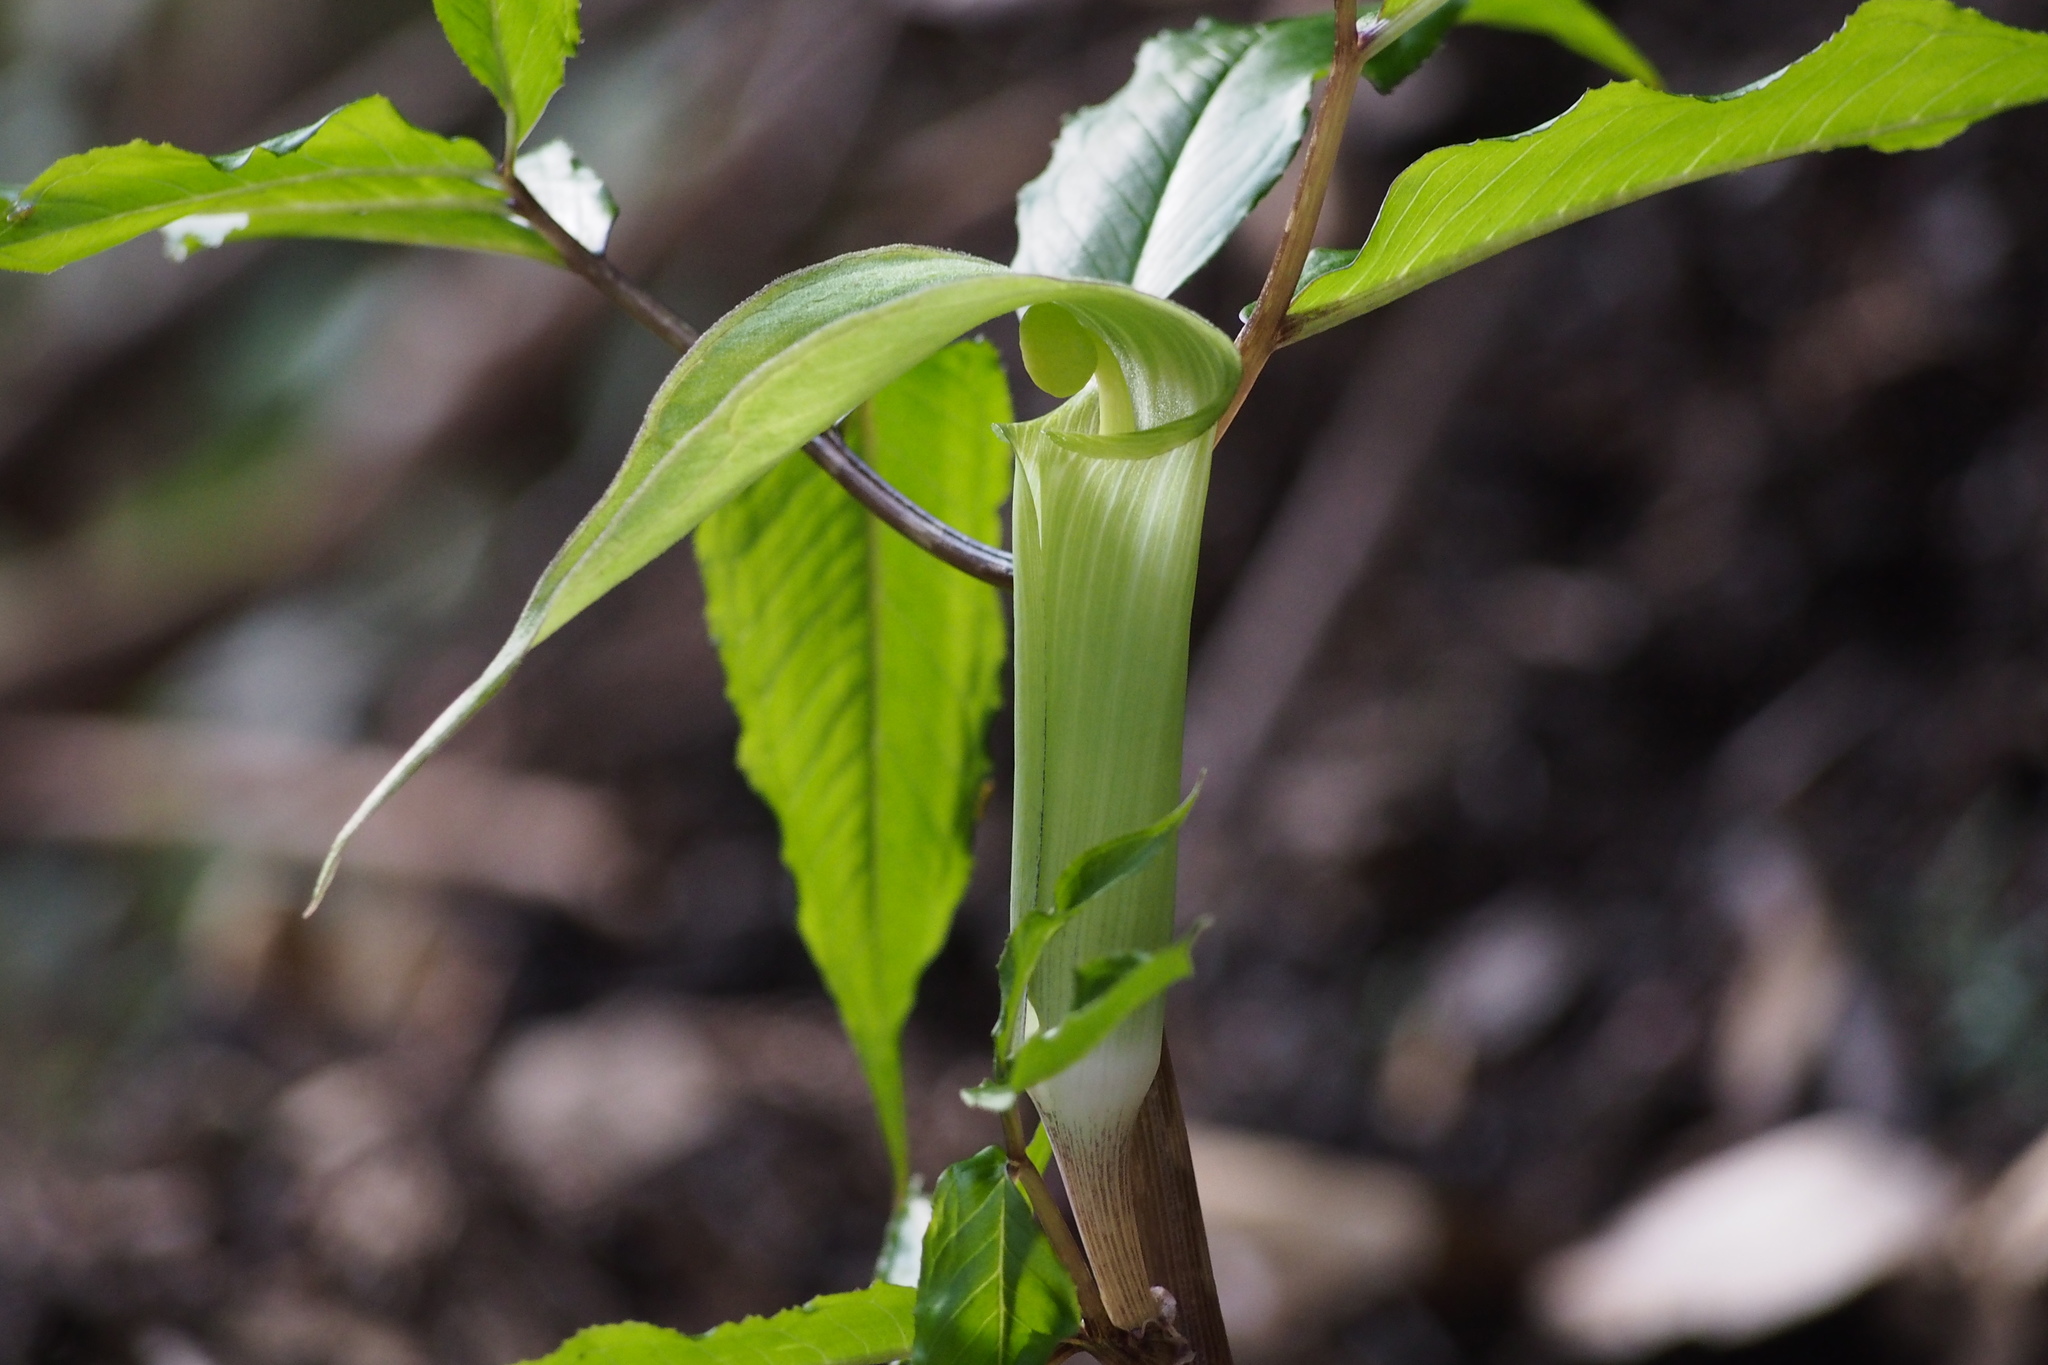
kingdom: Plantae
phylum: Tracheophyta
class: Liliopsida
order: Alismatales
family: Araceae
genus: Arisaema
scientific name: Arisaema yamatense
